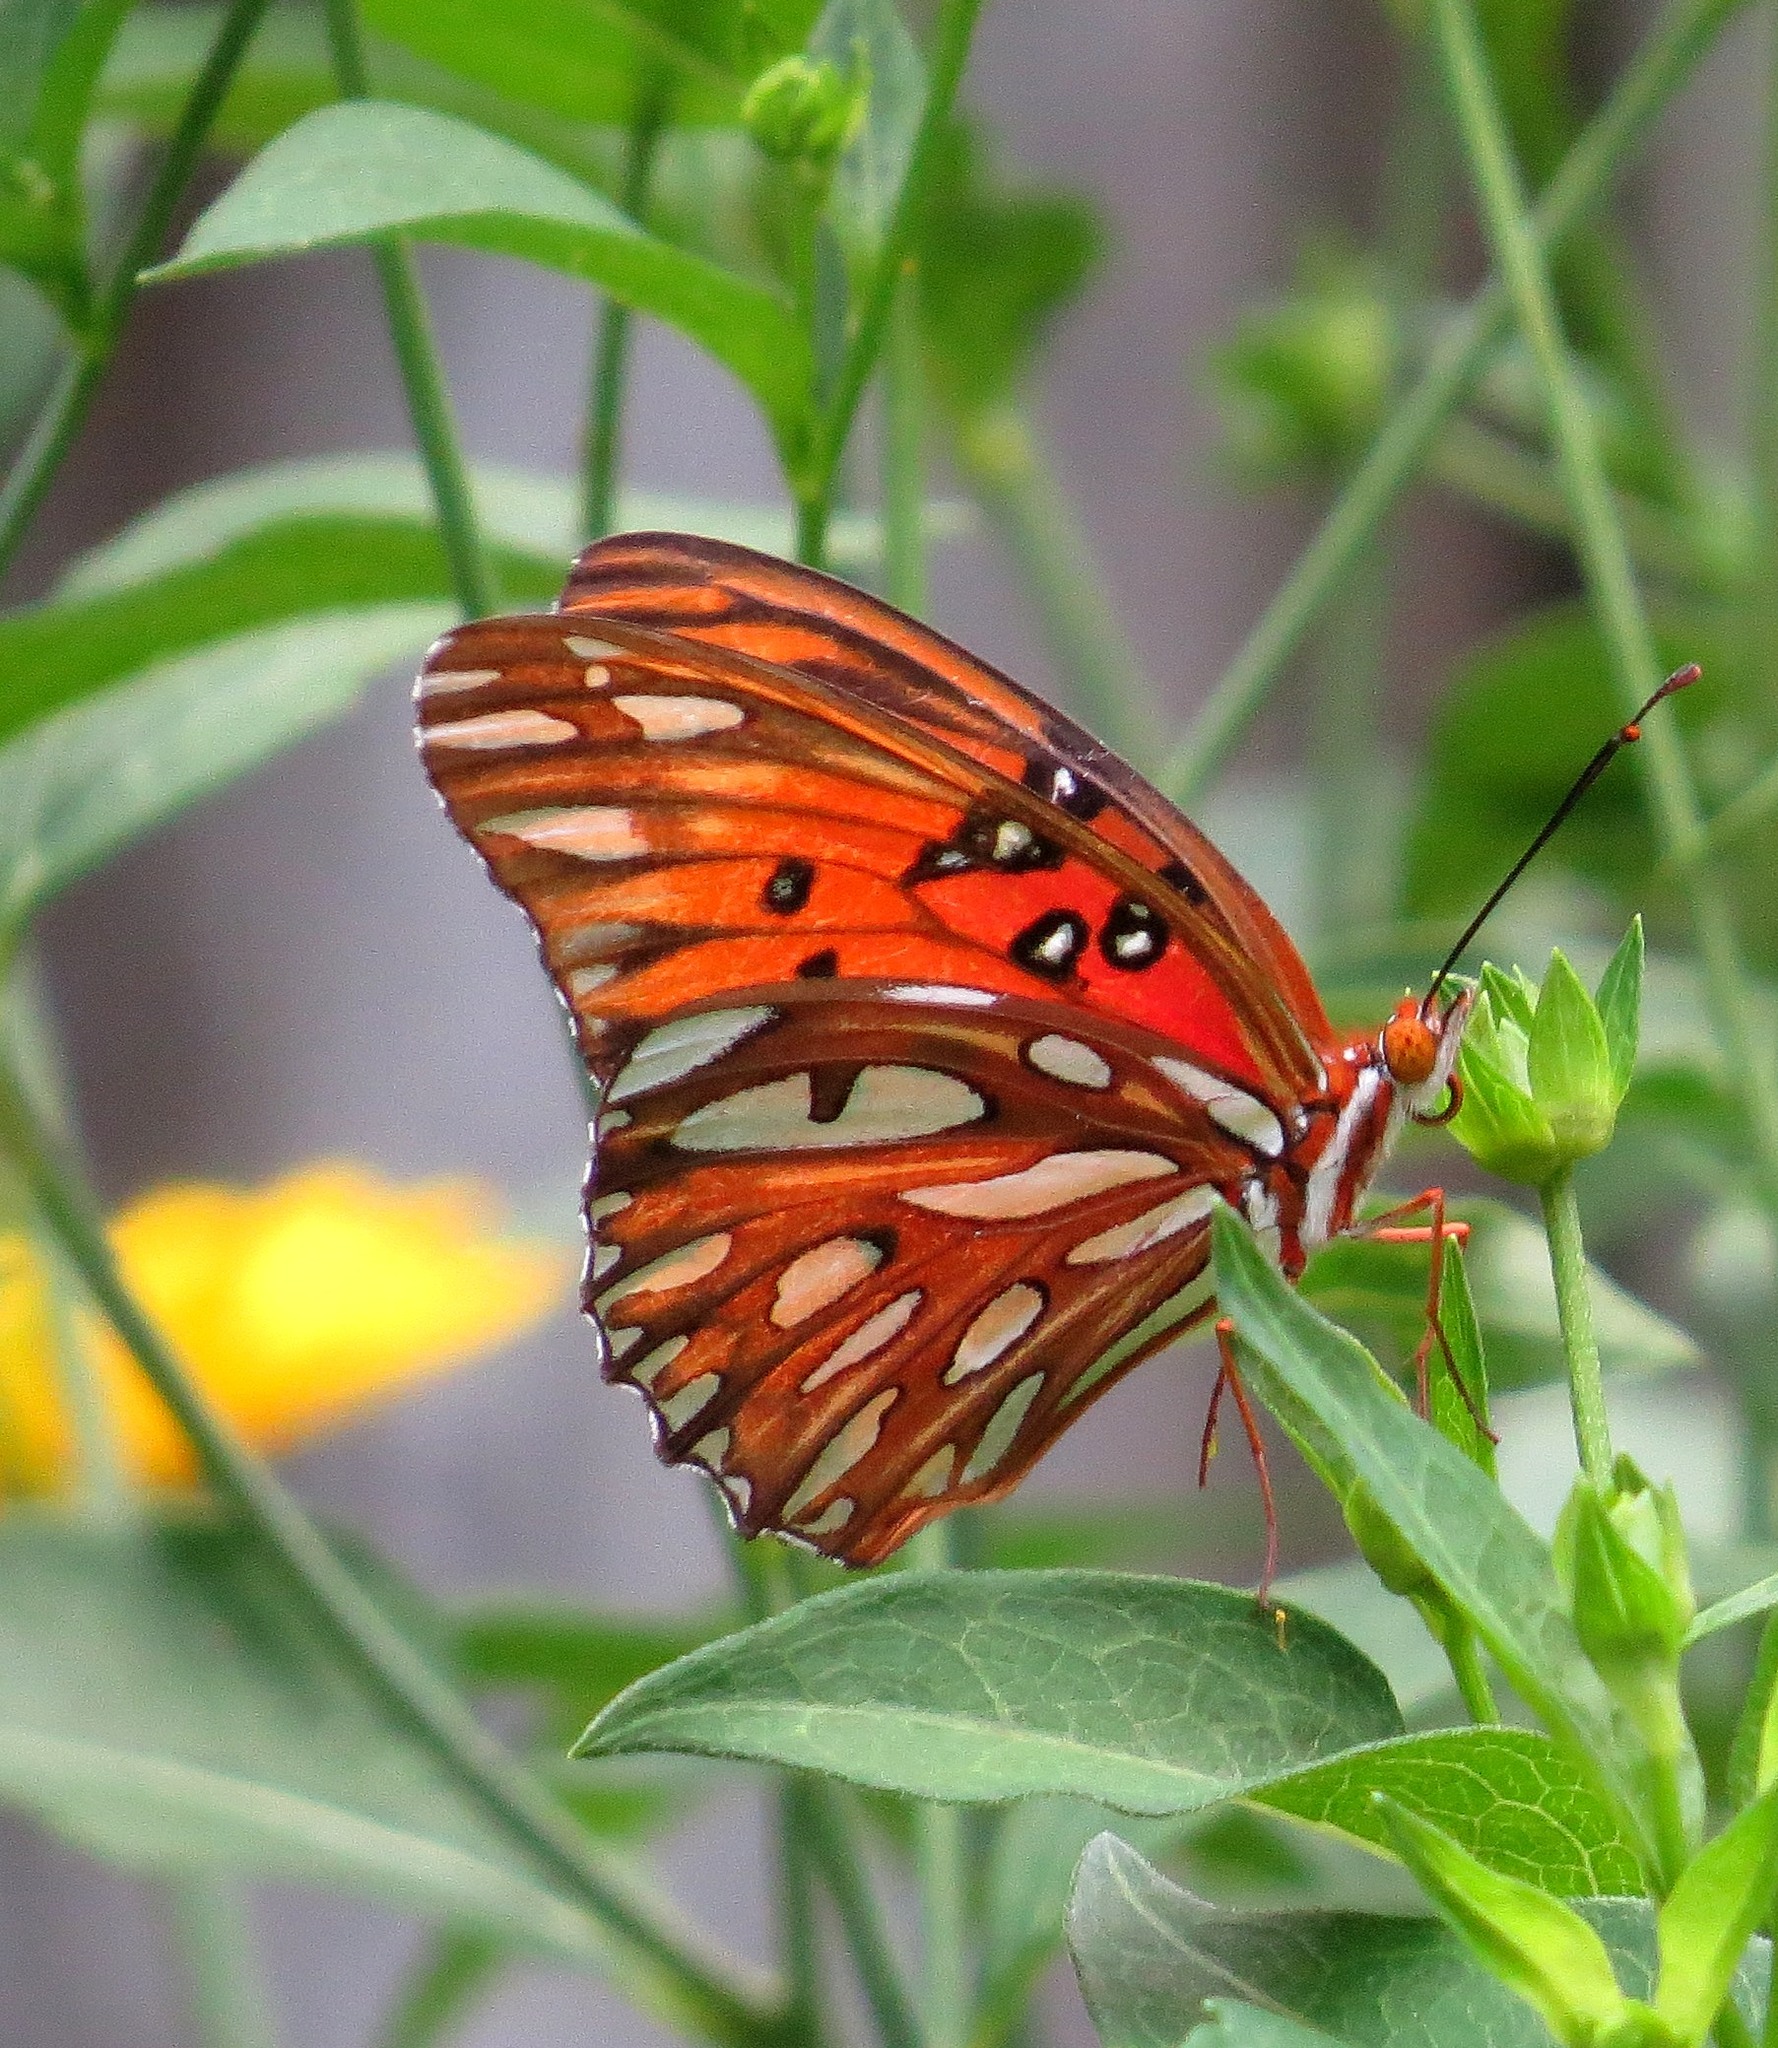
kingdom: Animalia
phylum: Arthropoda
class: Insecta
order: Lepidoptera
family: Nymphalidae
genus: Dione
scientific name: Dione vanillae
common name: Gulf fritillary
